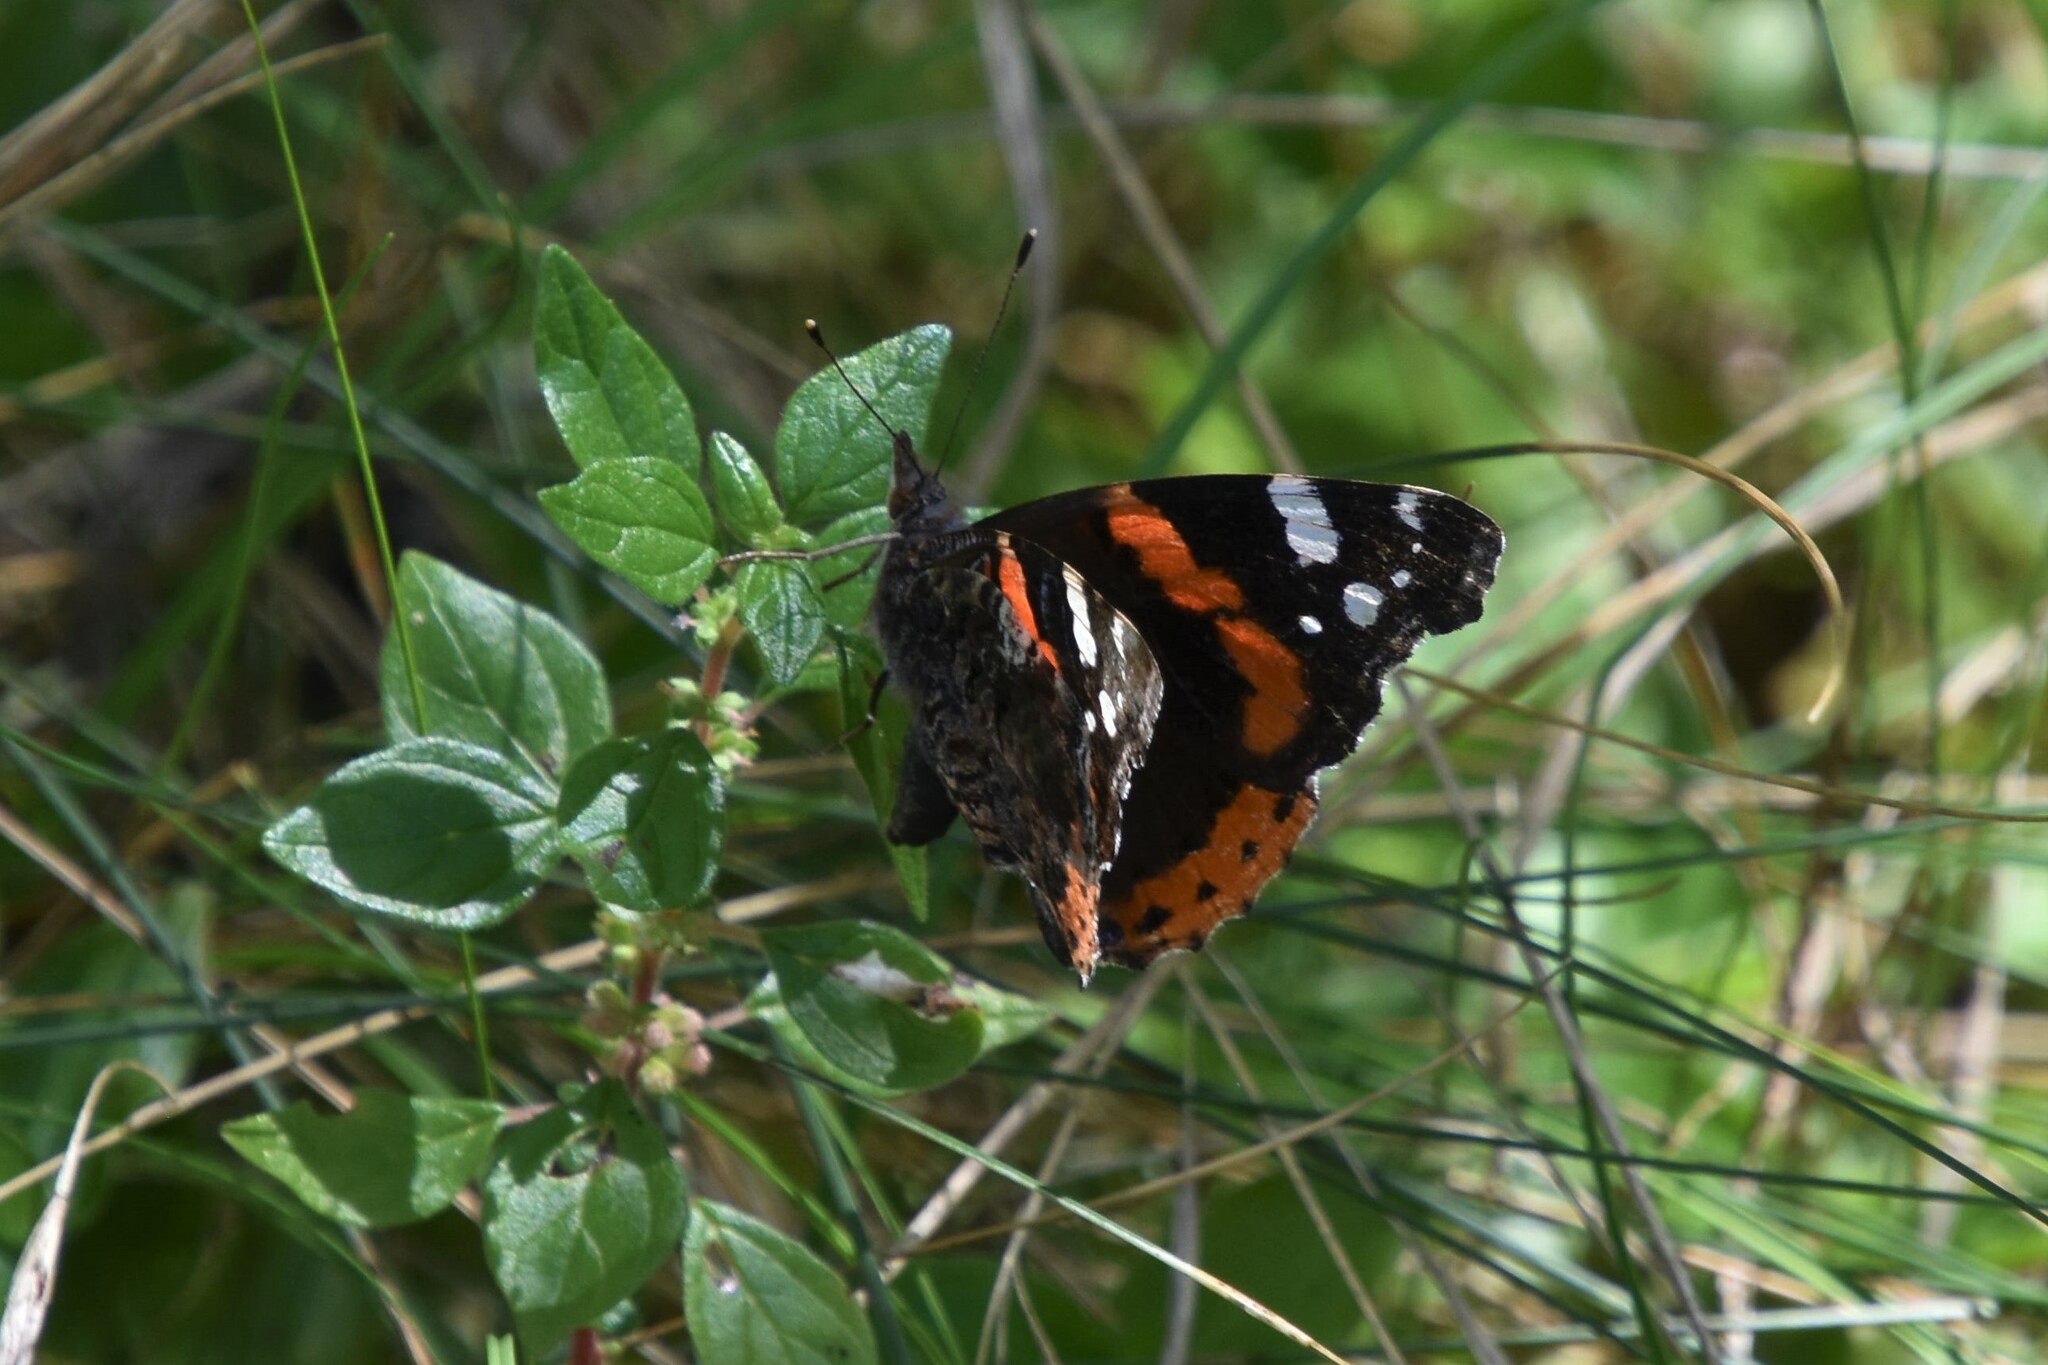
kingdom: Animalia
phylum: Arthropoda
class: Insecta
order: Lepidoptera
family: Nymphalidae
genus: Vanessa
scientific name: Vanessa atalanta
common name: Red admiral
